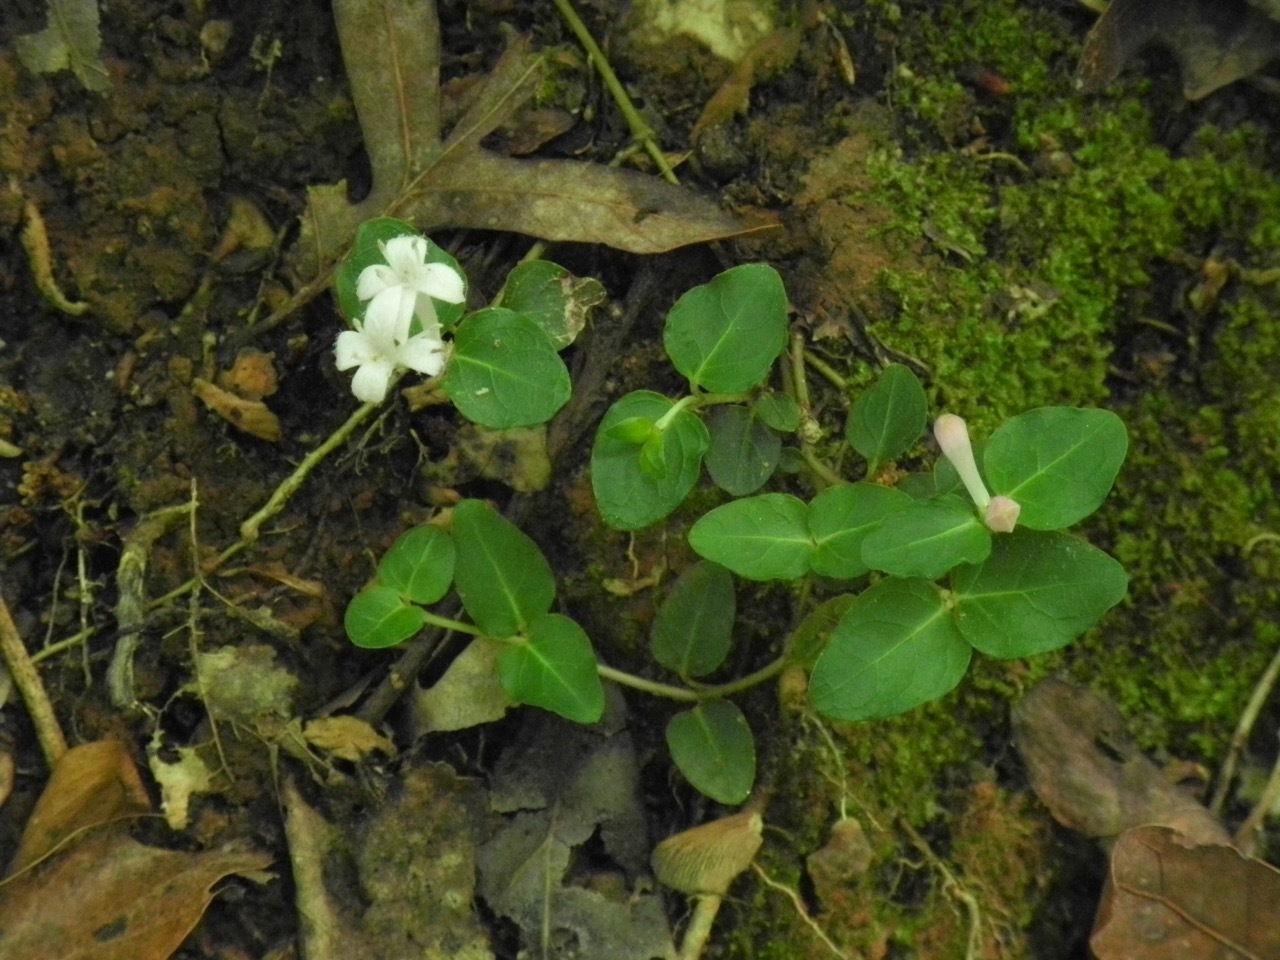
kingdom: Plantae
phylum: Tracheophyta
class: Magnoliopsida
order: Gentianales
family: Rubiaceae
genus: Mitchella
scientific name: Mitchella repens
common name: Partridge-berry
